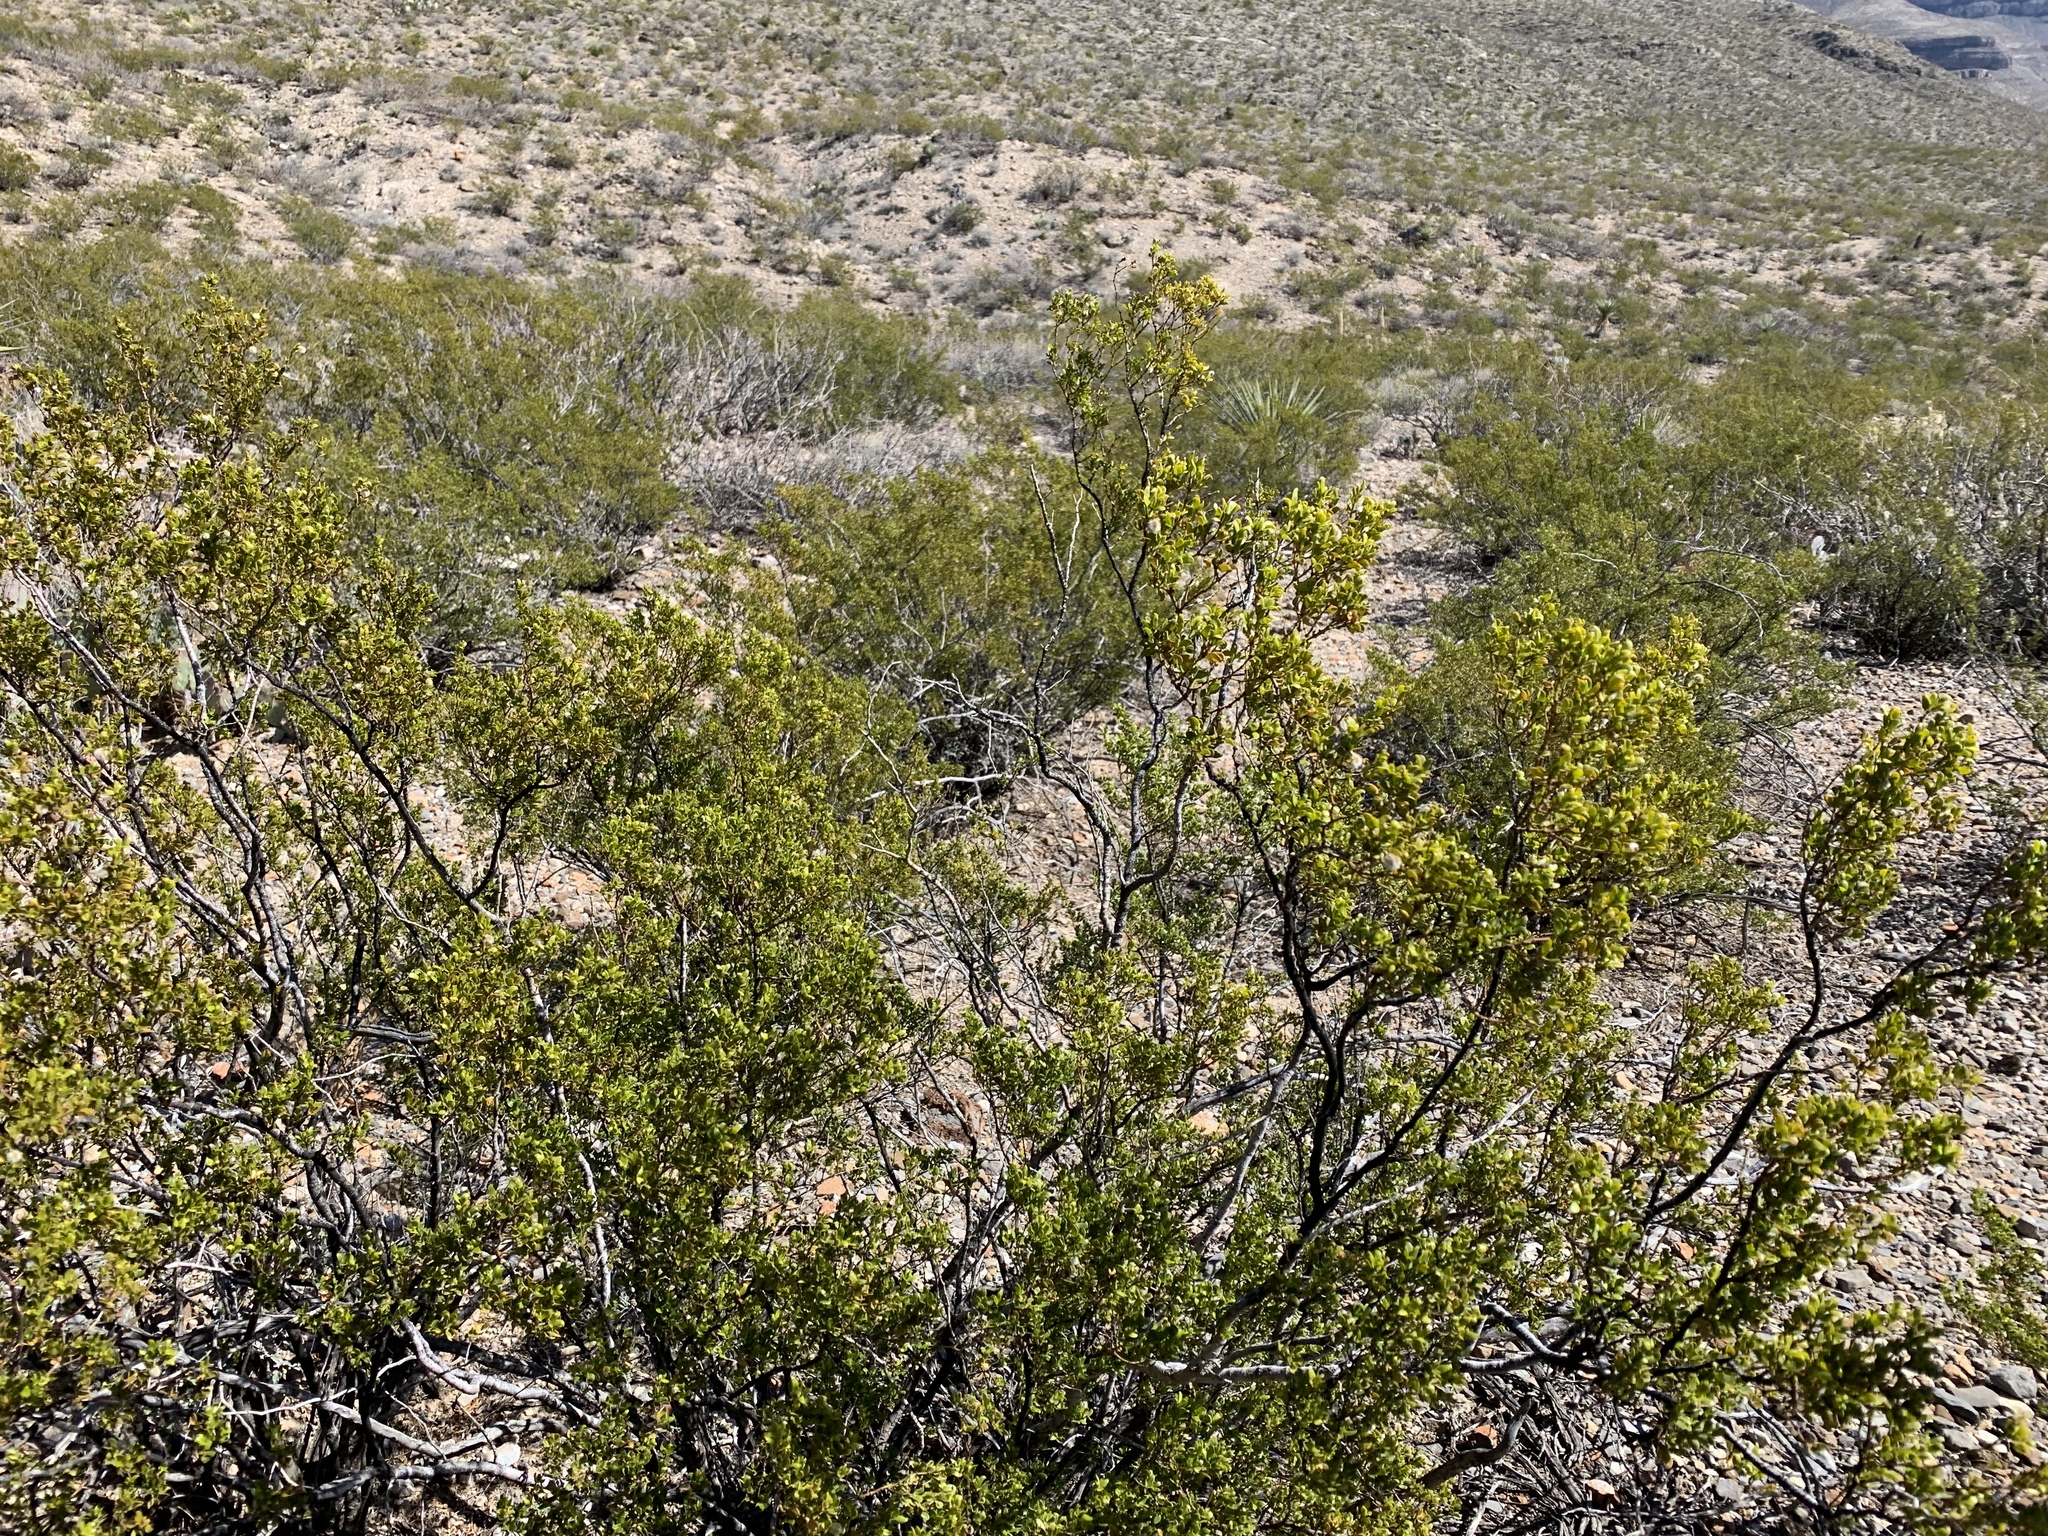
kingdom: Plantae
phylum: Tracheophyta
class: Magnoliopsida
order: Zygophyllales
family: Zygophyllaceae
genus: Larrea
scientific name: Larrea tridentata
